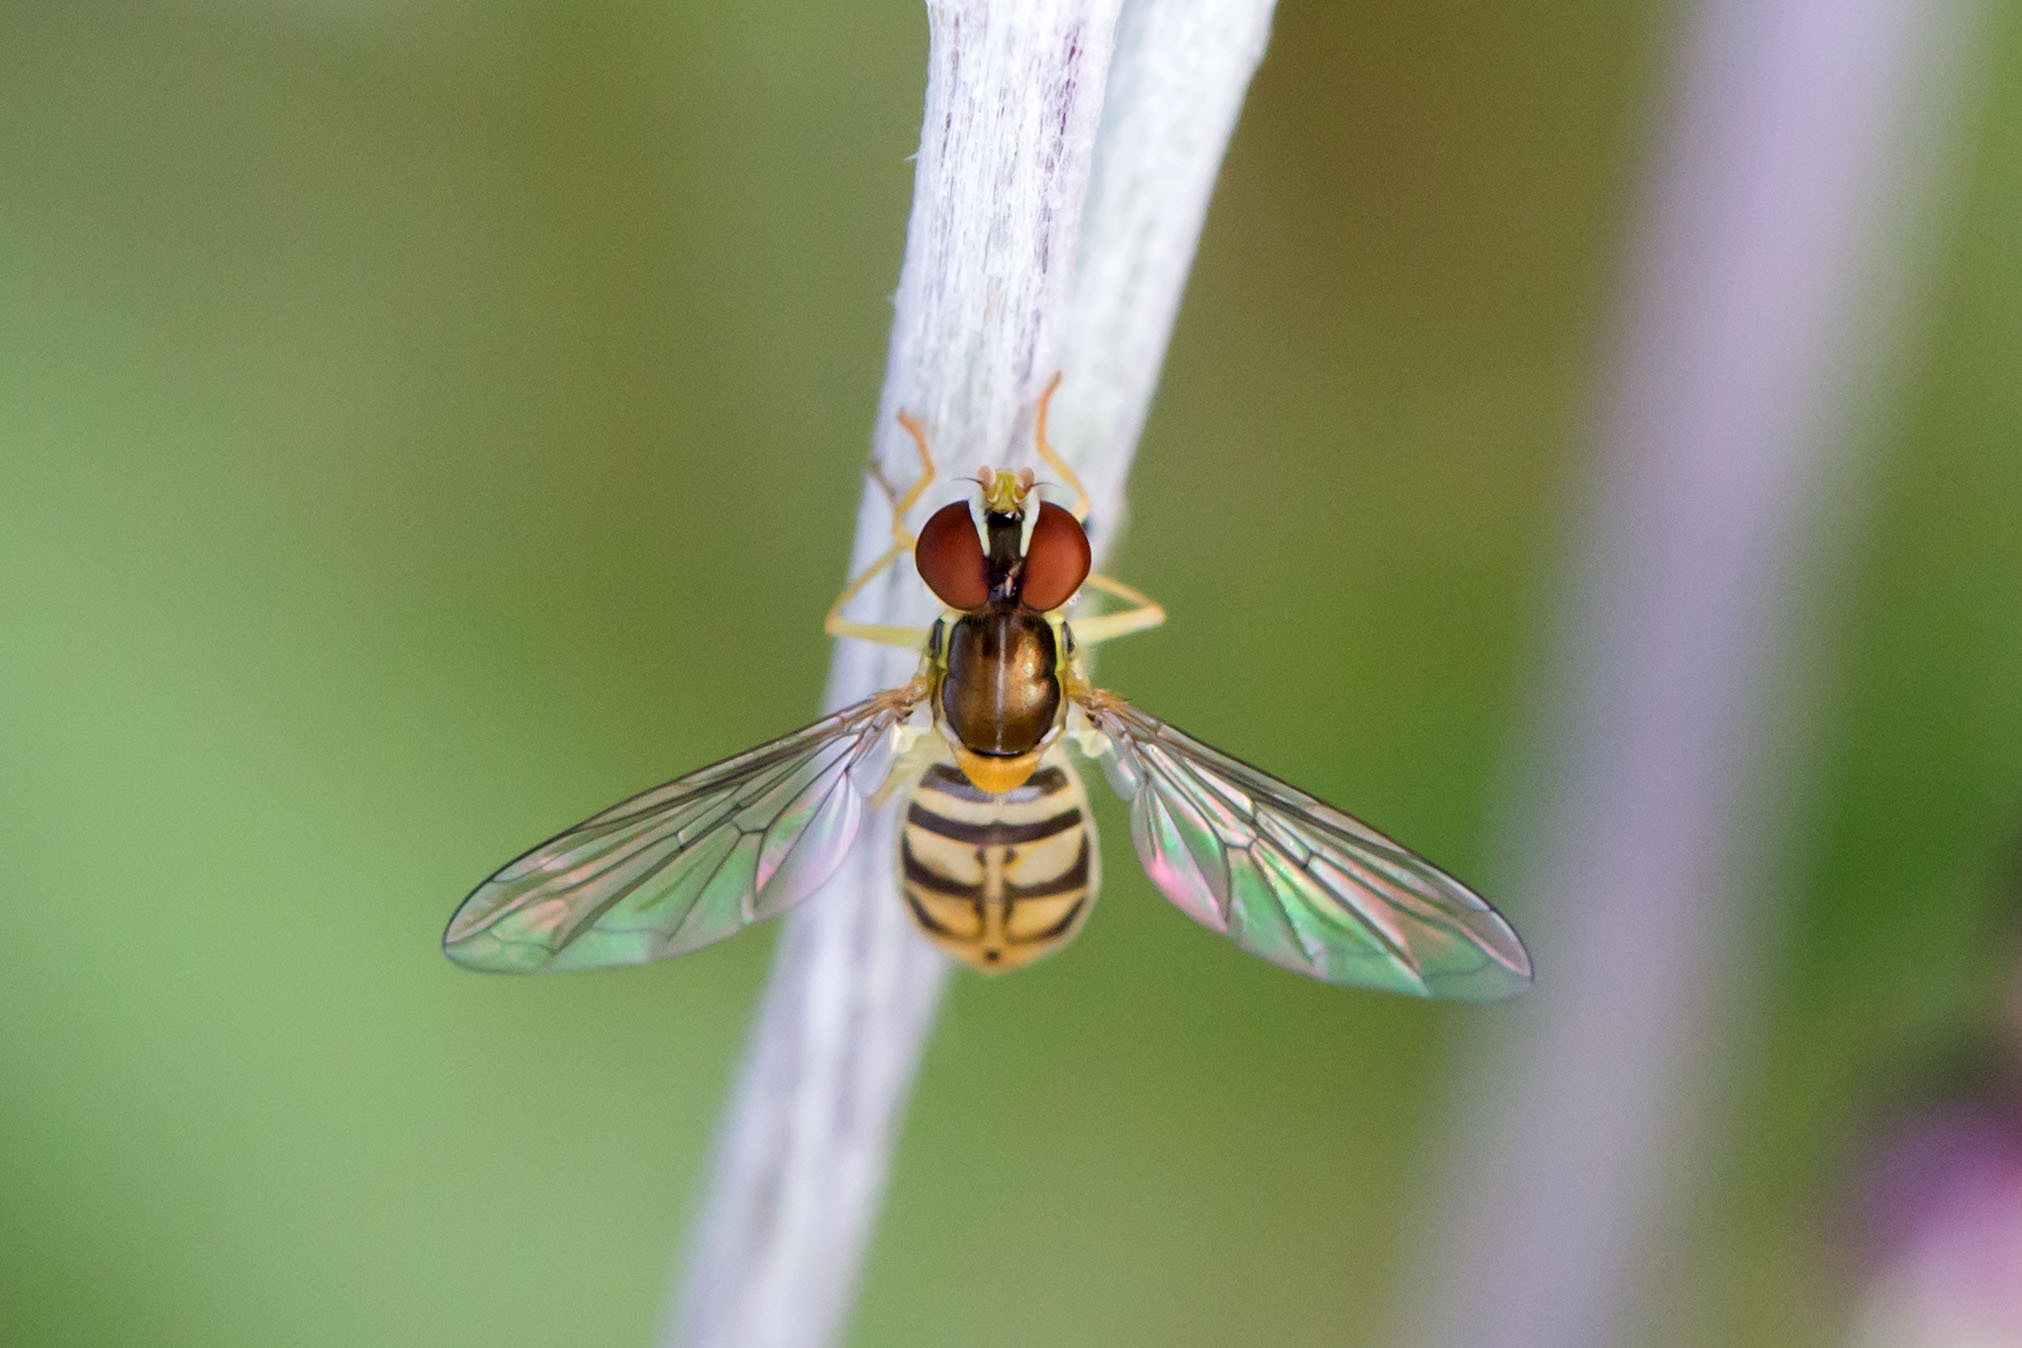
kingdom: Animalia
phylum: Arthropoda
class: Insecta
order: Diptera
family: Syrphidae
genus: Toxomerus
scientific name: Toxomerus marginatus
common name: Syrphid fly
